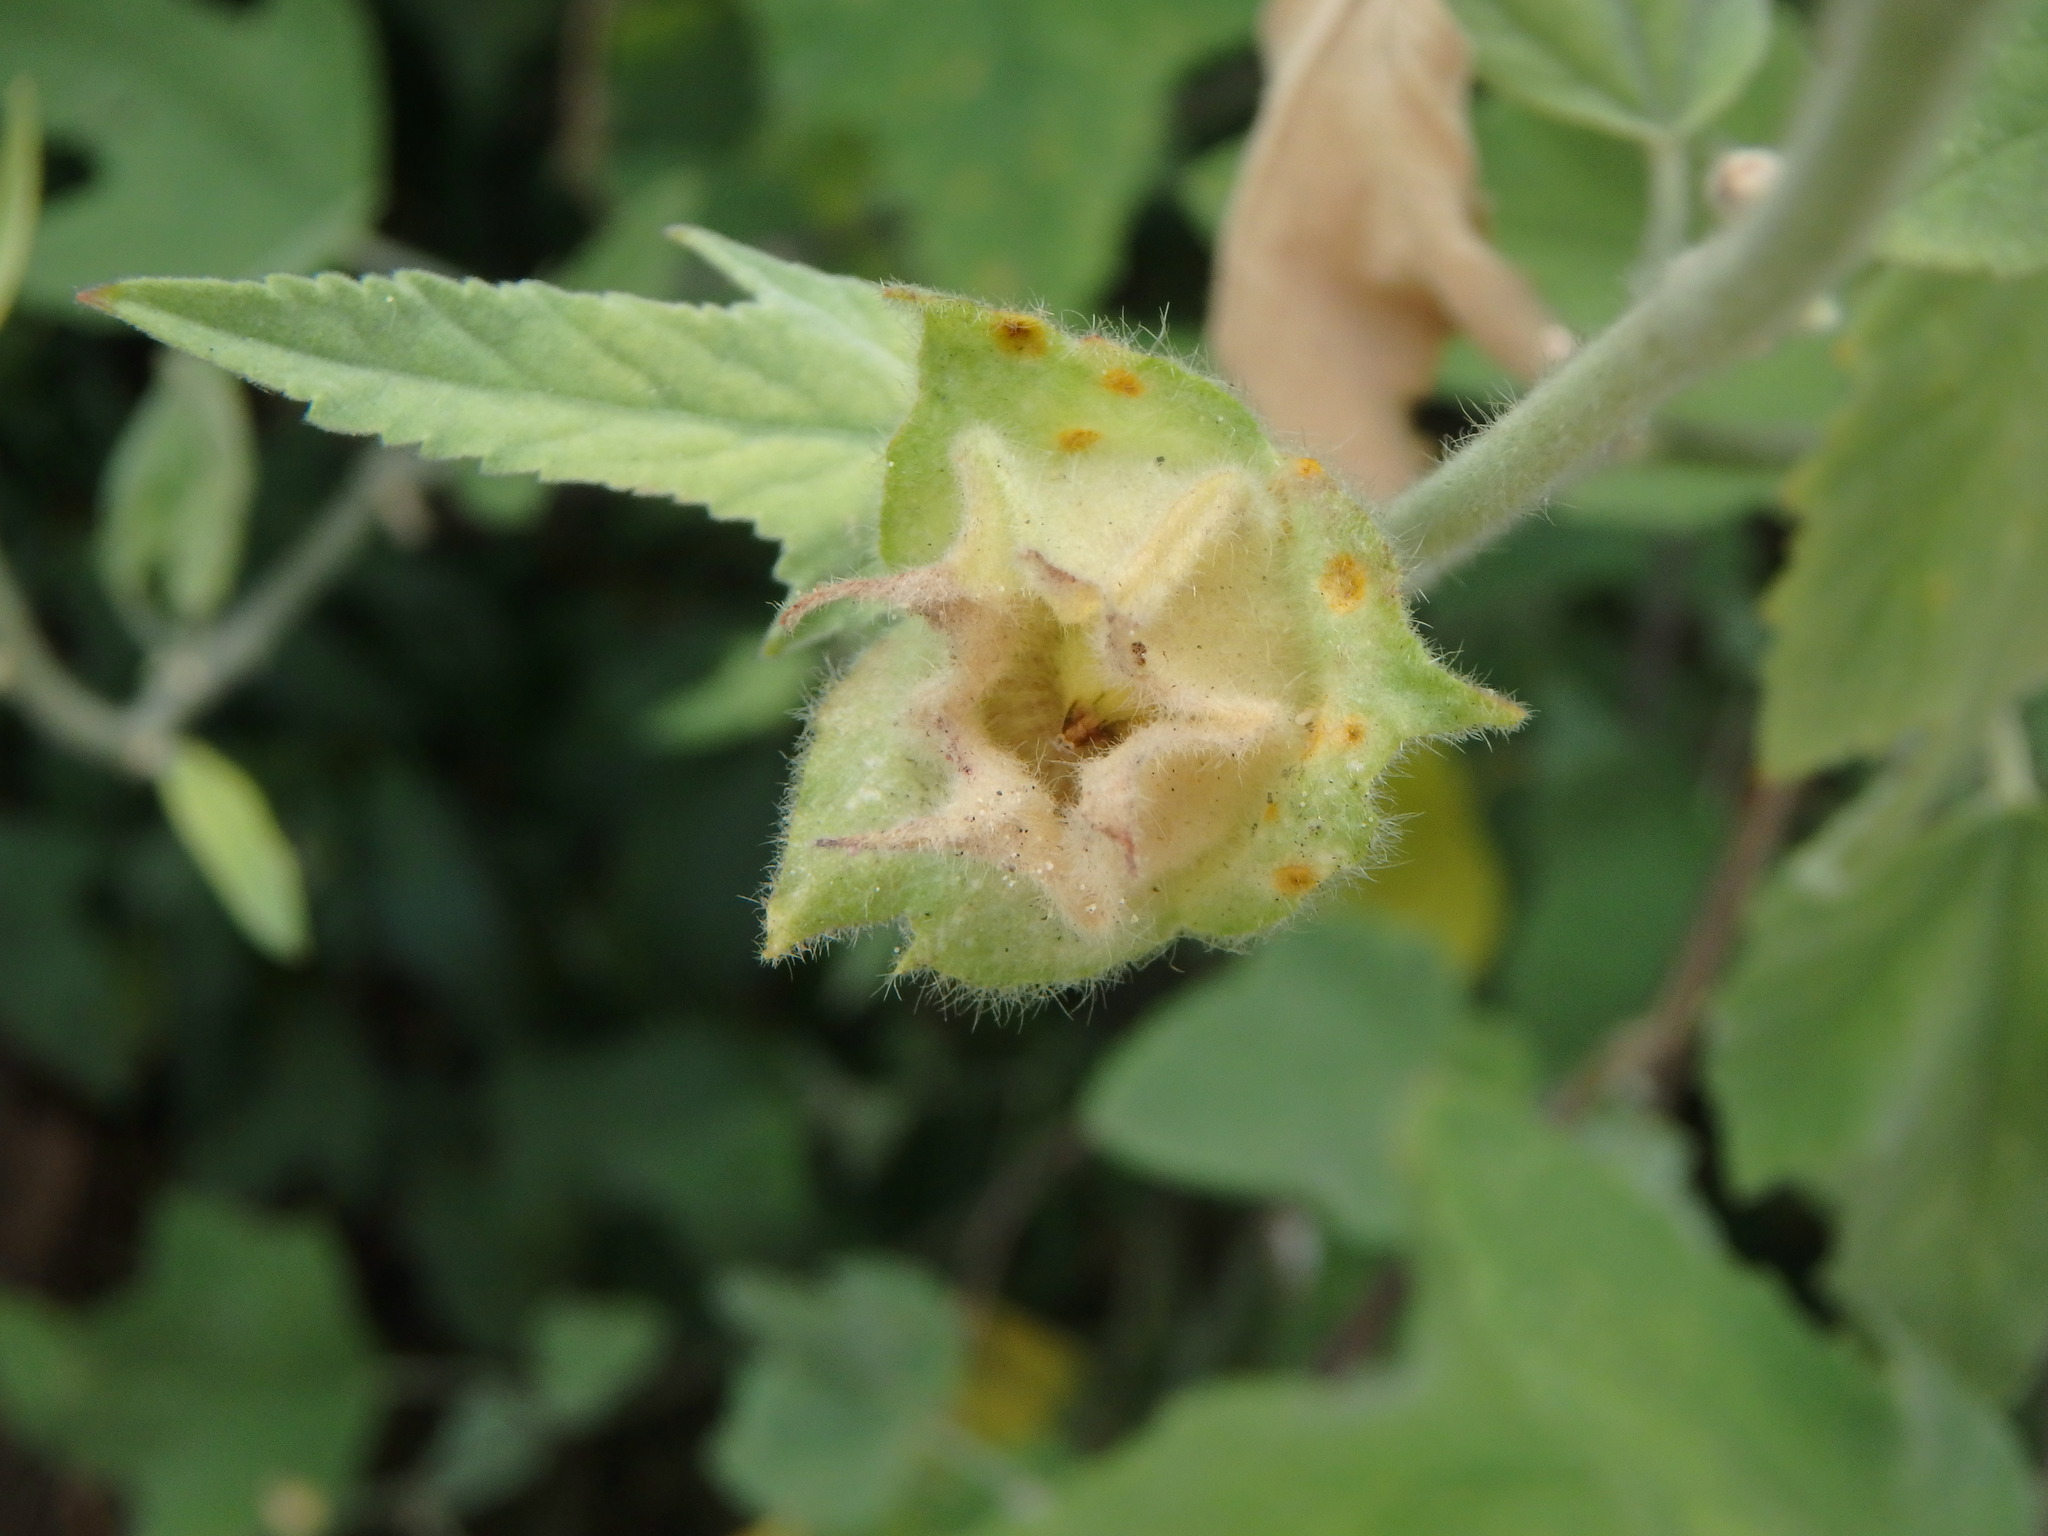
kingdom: Plantae
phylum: Tracheophyta
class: Magnoliopsida
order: Malvales
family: Malvaceae
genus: Malva
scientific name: Malva clementii
